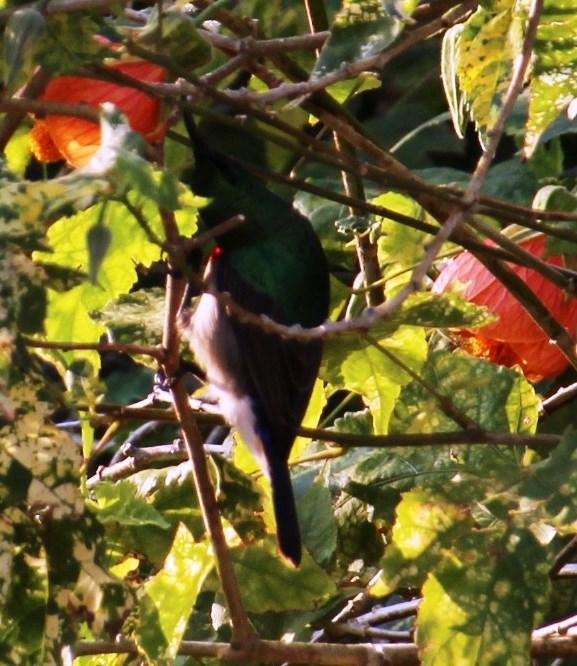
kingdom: Animalia
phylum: Chordata
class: Aves
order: Passeriformes
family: Nectariniidae
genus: Cinnyris
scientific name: Cinnyris chalybeus
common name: Southern double-collared sunbird
